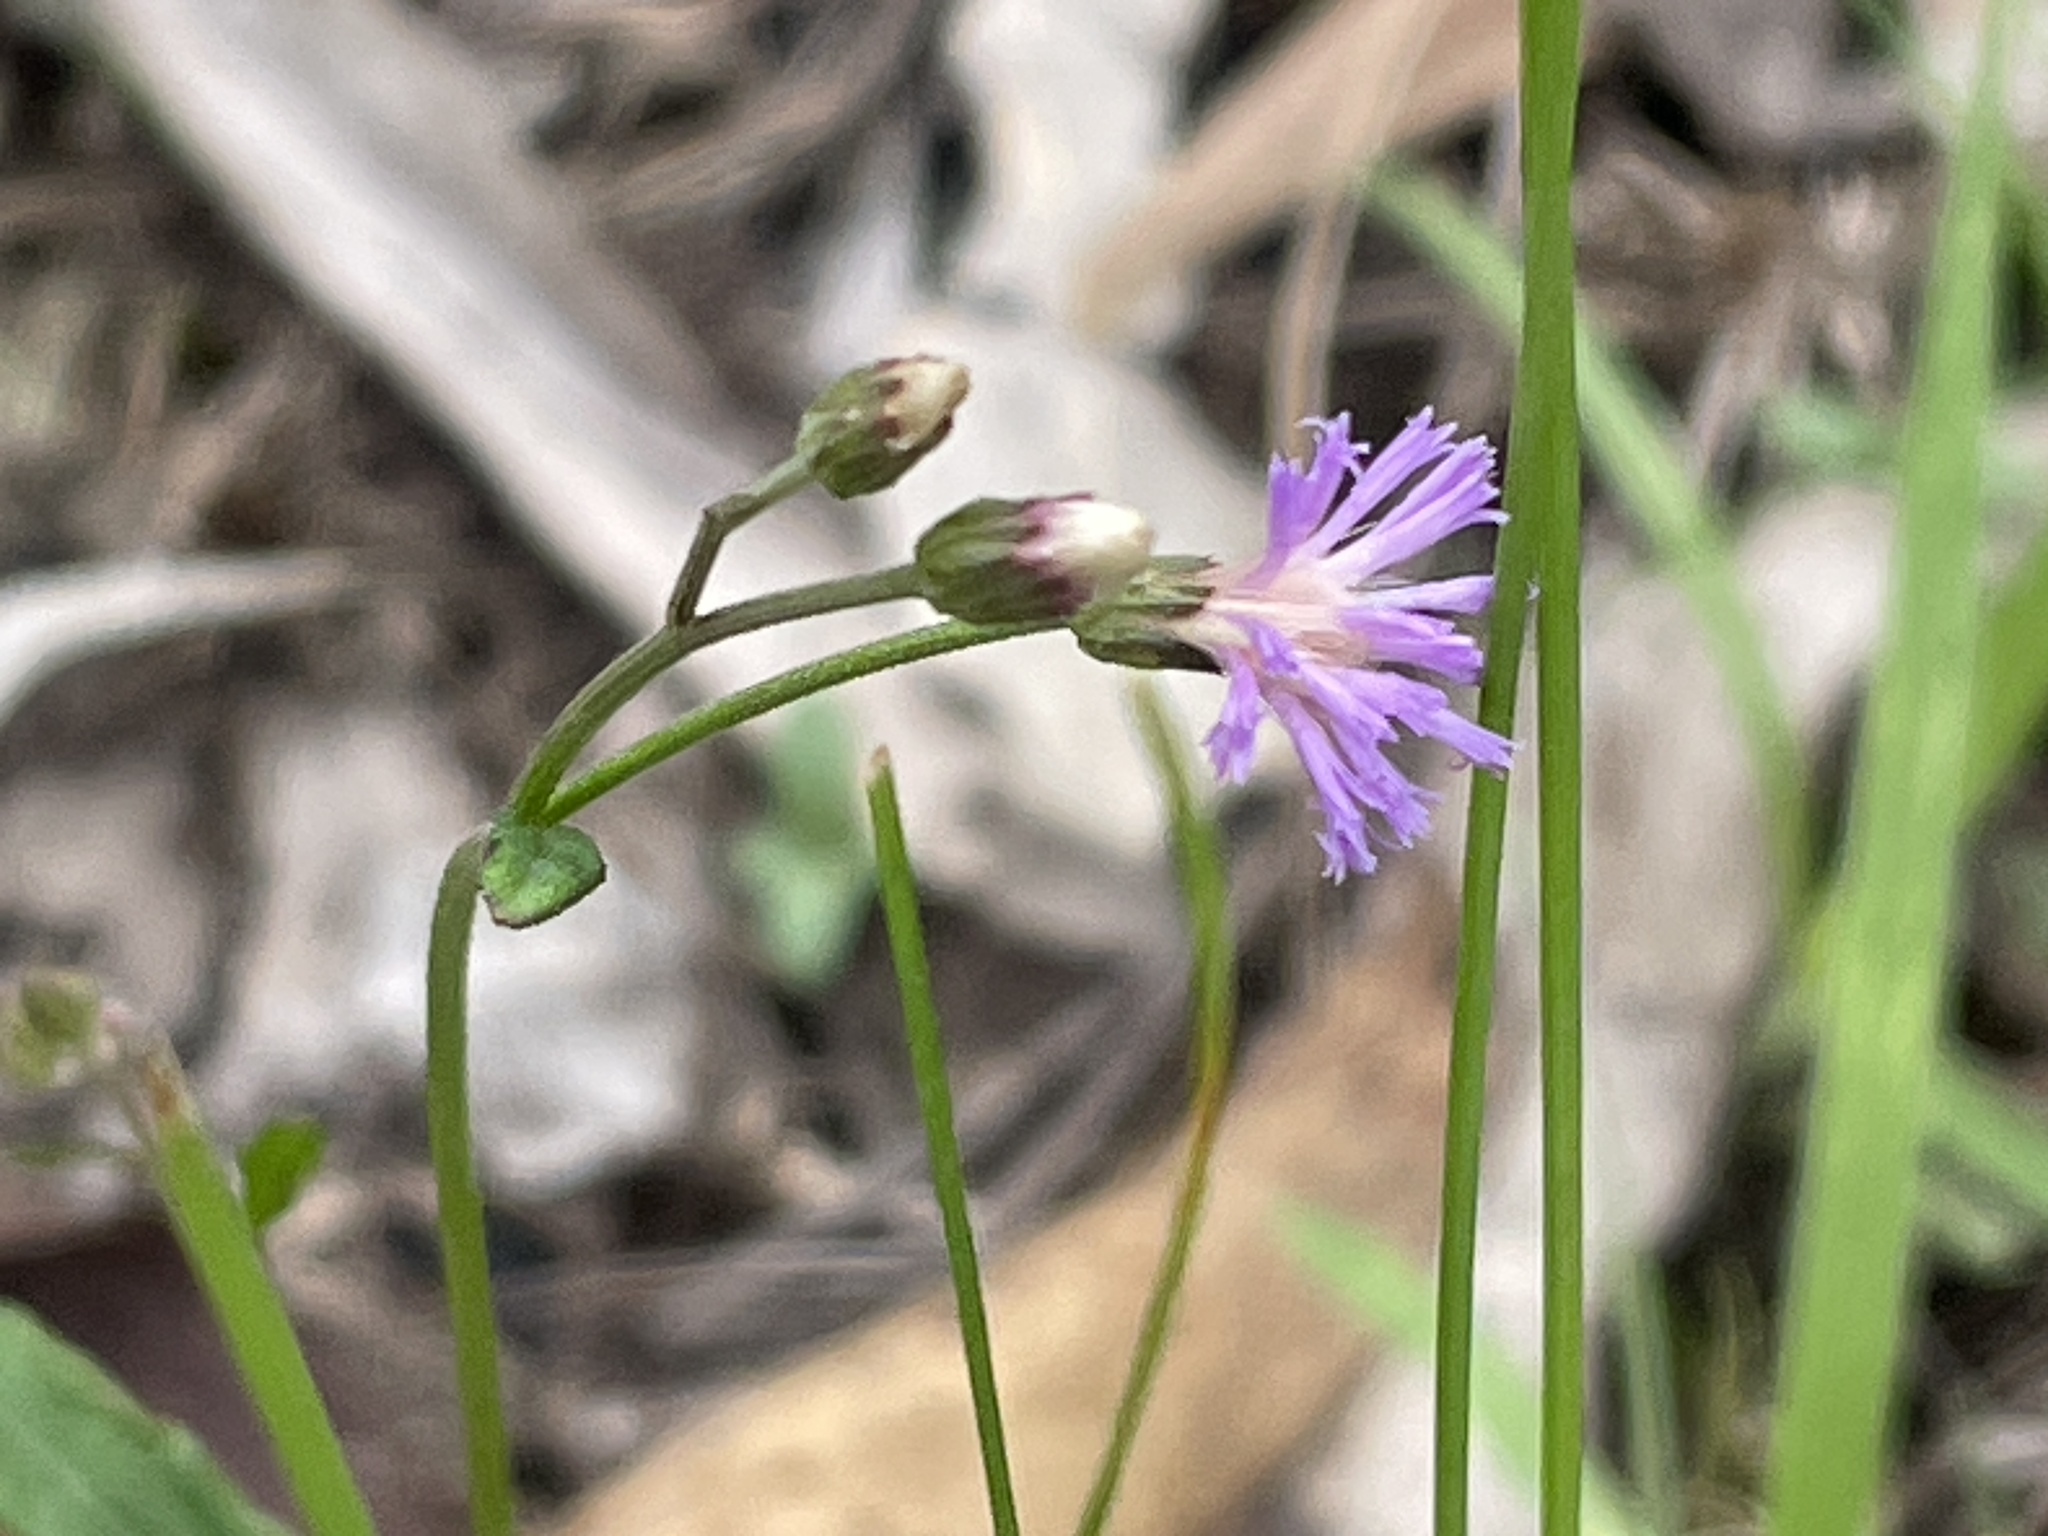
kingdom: Plantae
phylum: Tracheophyta
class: Magnoliopsida
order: Asterales
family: Asteraceae
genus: Cyanthillium
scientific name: Cyanthillium cinereum
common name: Little ironweed
